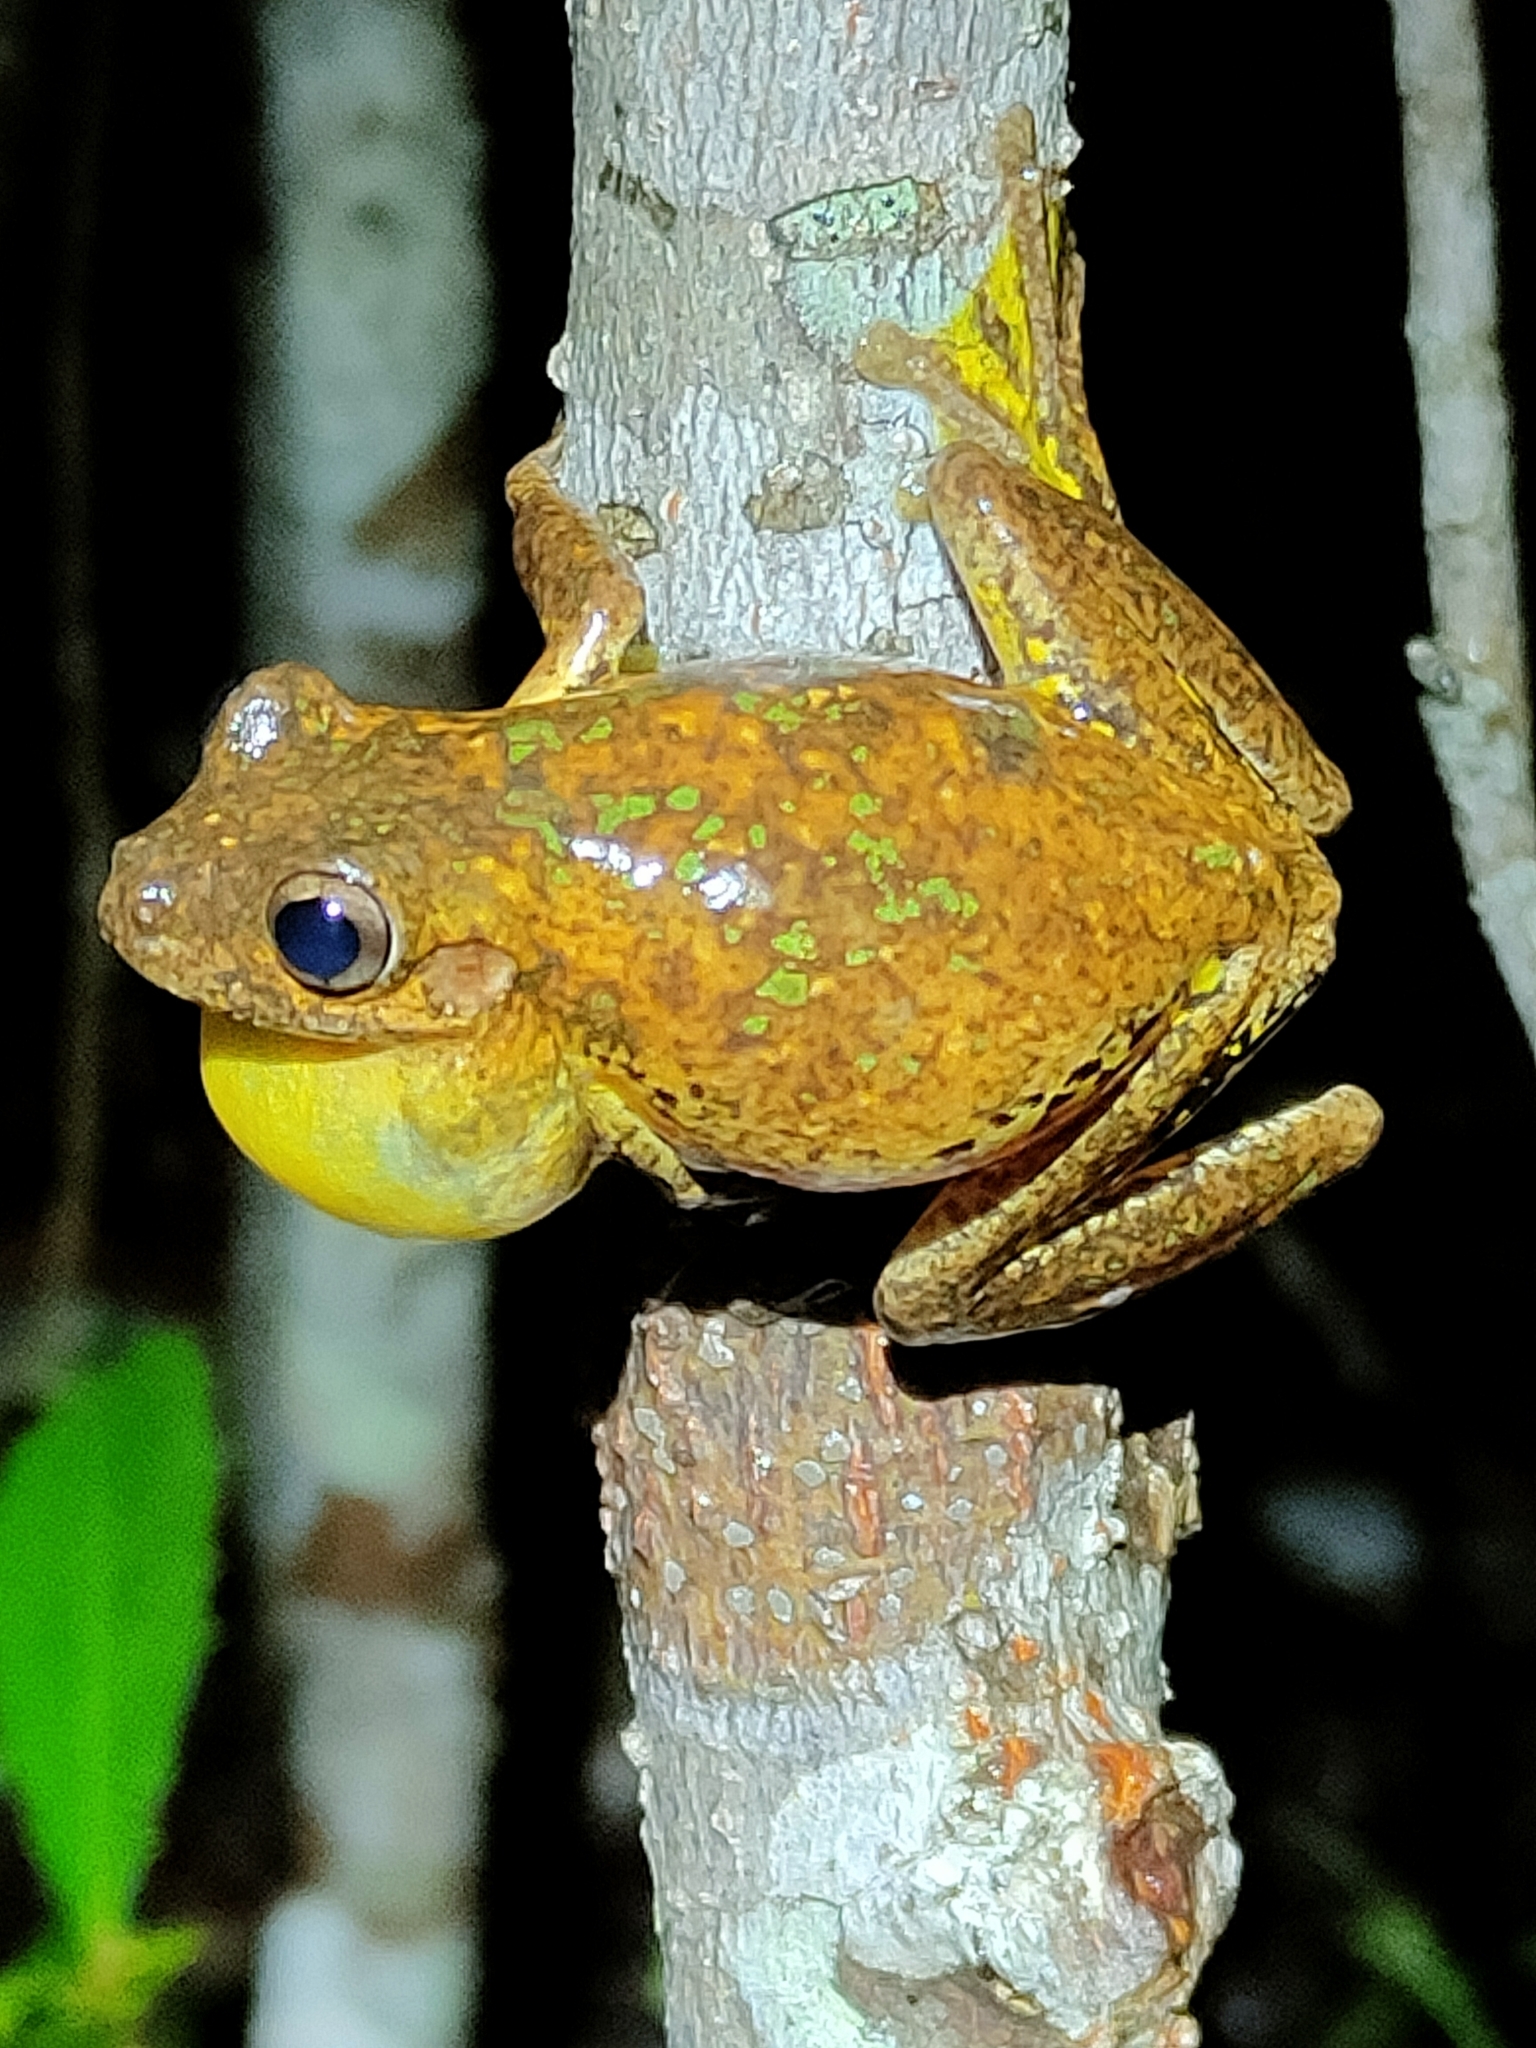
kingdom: Animalia
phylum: Chordata
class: Amphibia
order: Anura
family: Pelodryadidae
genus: Litoria
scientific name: Litoria tyleri
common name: Laughing tree frog
